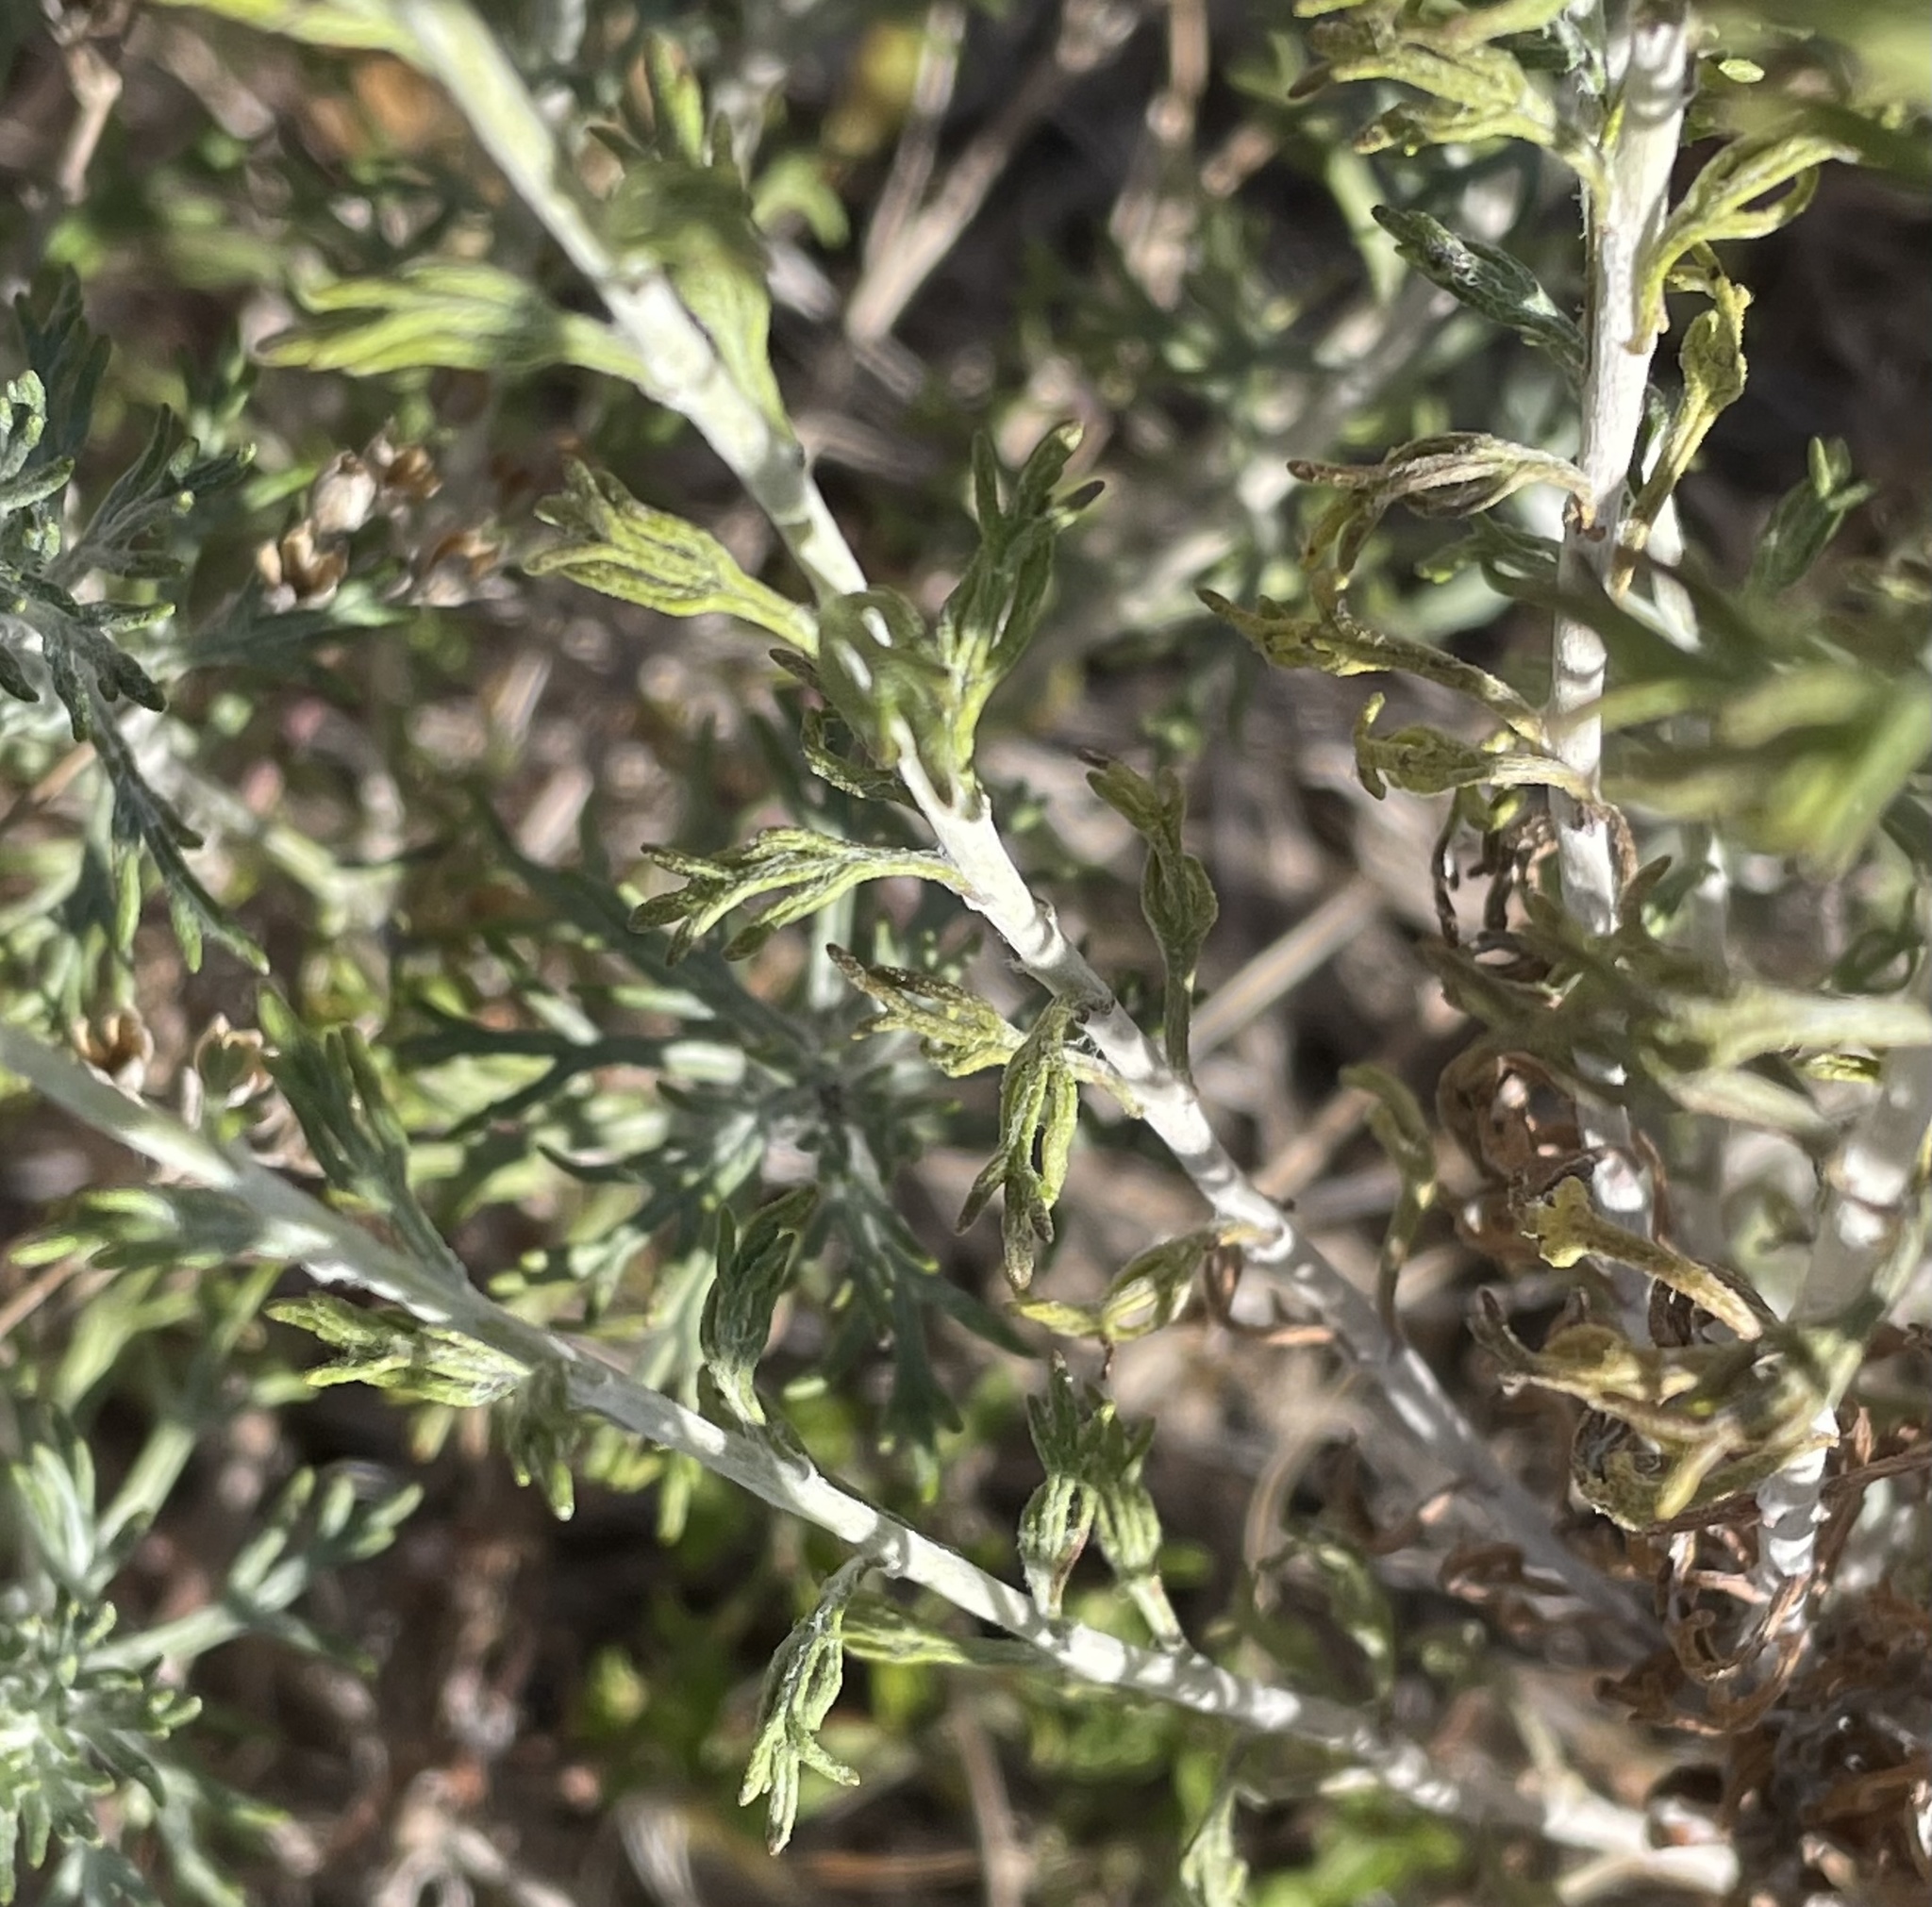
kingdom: Plantae
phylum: Tracheophyta
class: Magnoliopsida
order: Asterales
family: Asteraceae
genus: Eriophyllum
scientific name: Eriophyllum confertiflorum
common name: Golden-yarrow
